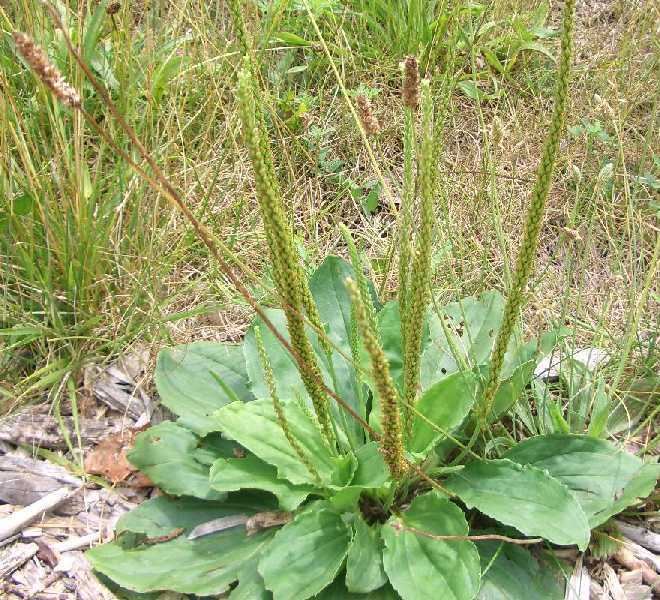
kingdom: Plantae
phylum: Tracheophyta
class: Magnoliopsida
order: Lamiales
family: Plantaginaceae
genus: Plantago
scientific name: Plantago major
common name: Common plantain
